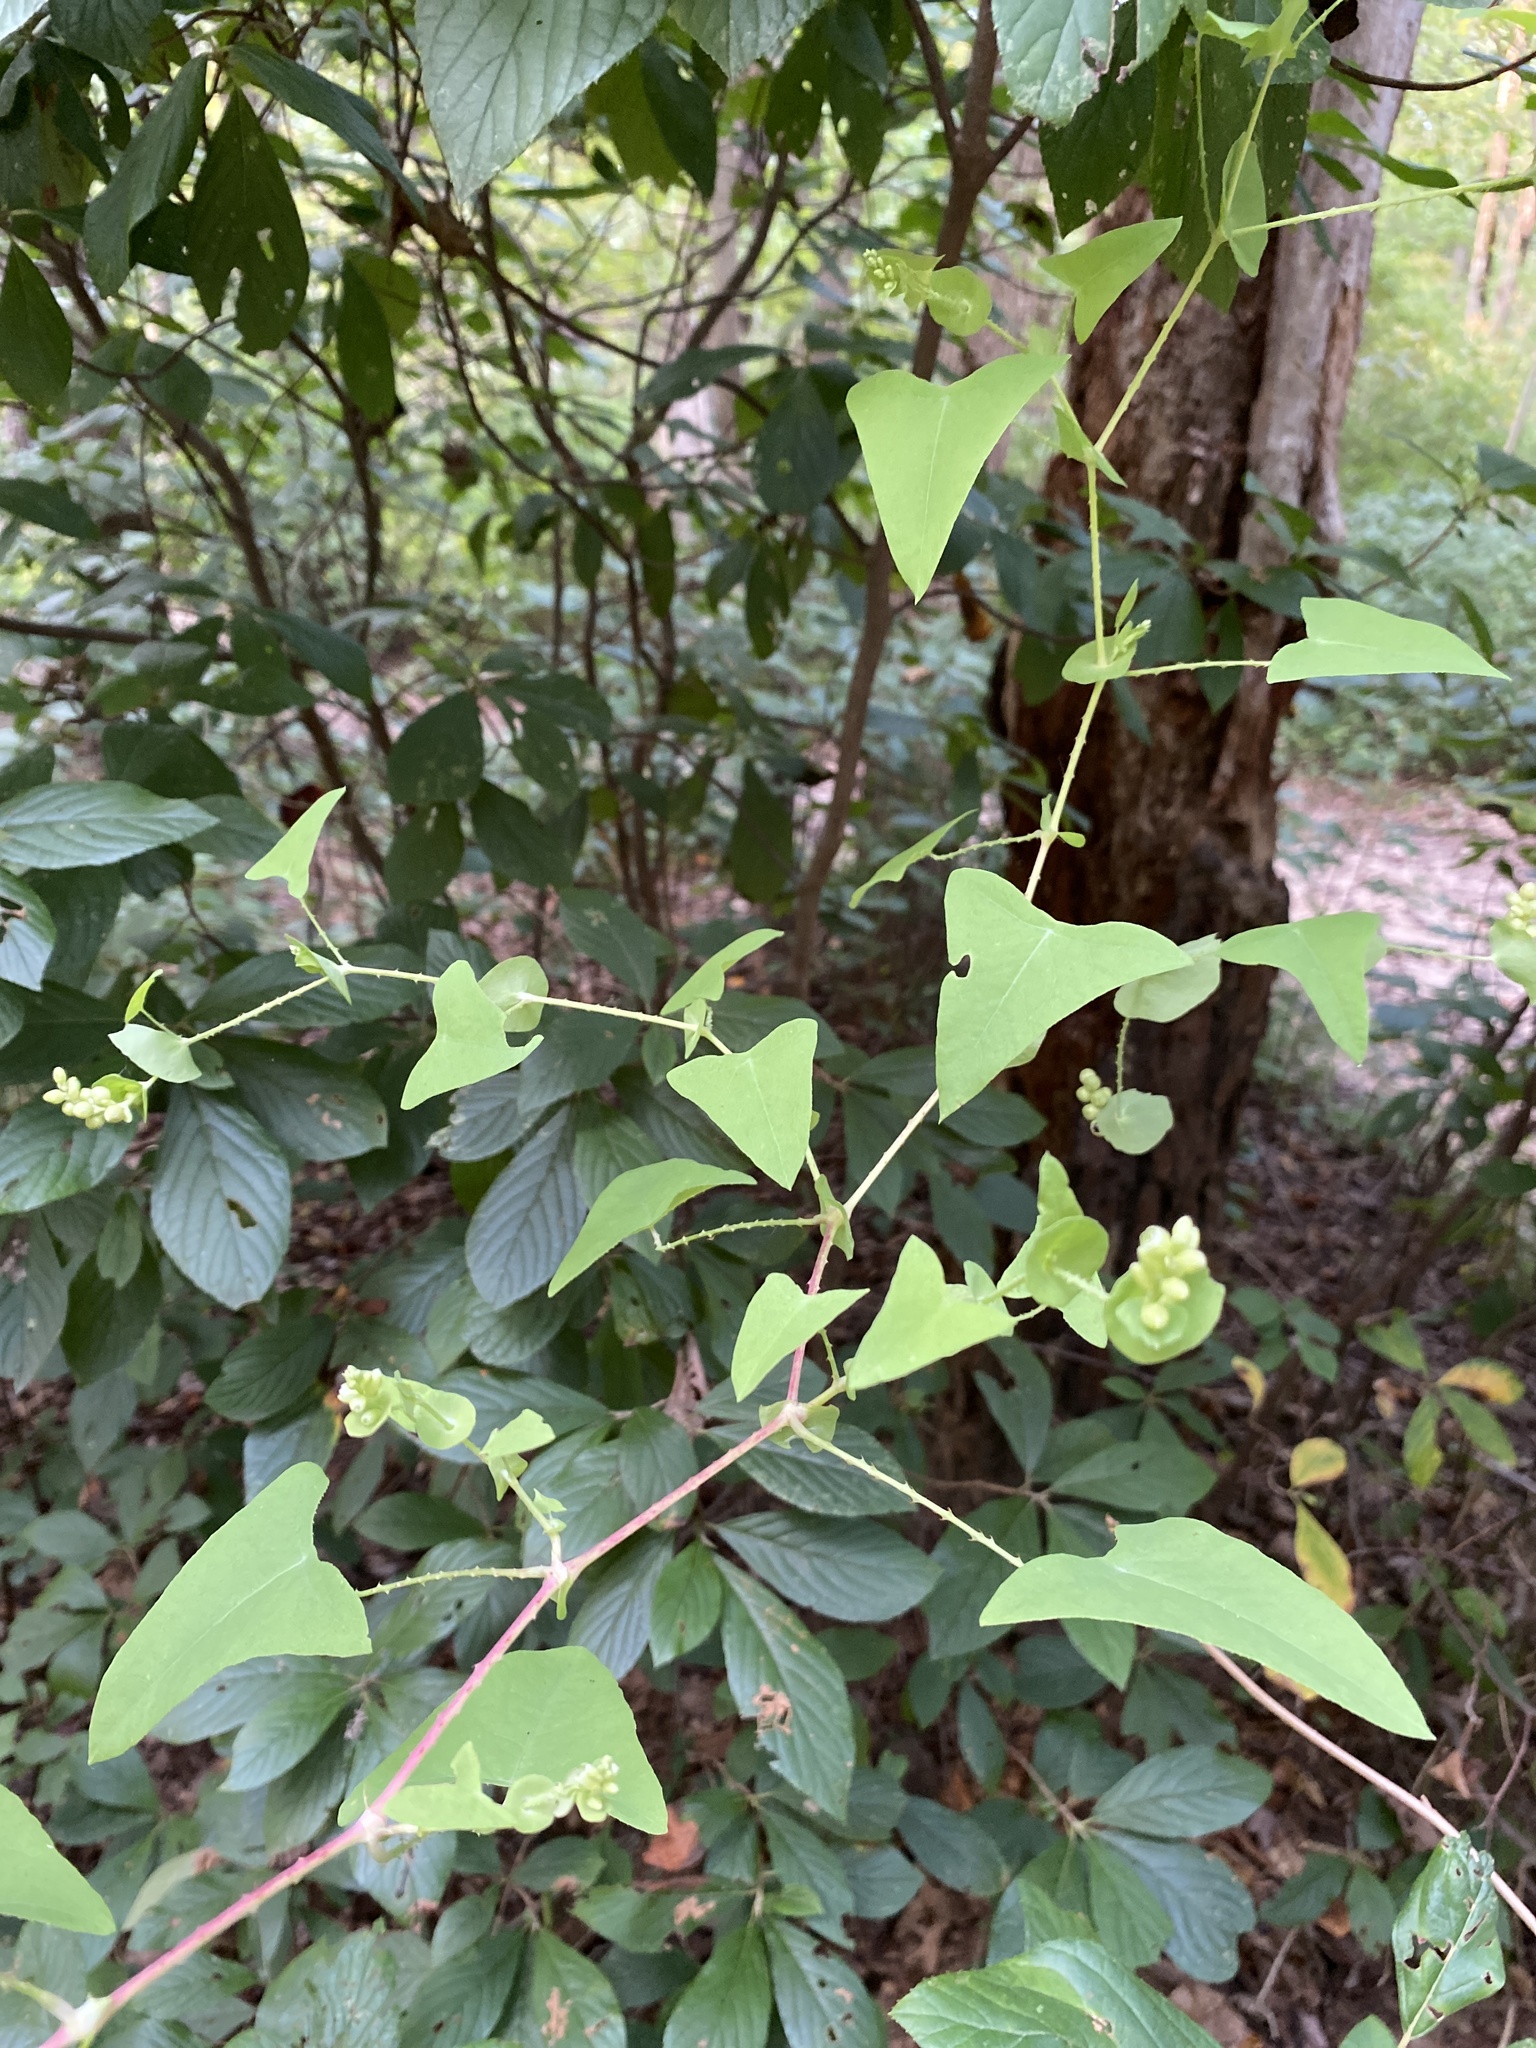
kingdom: Plantae
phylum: Tracheophyta
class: Magnoliopsida
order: Caryophyllales
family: Polygonaceae
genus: Persicaria
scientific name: Persicaria perfoliata
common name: Asiatic tearthumb
